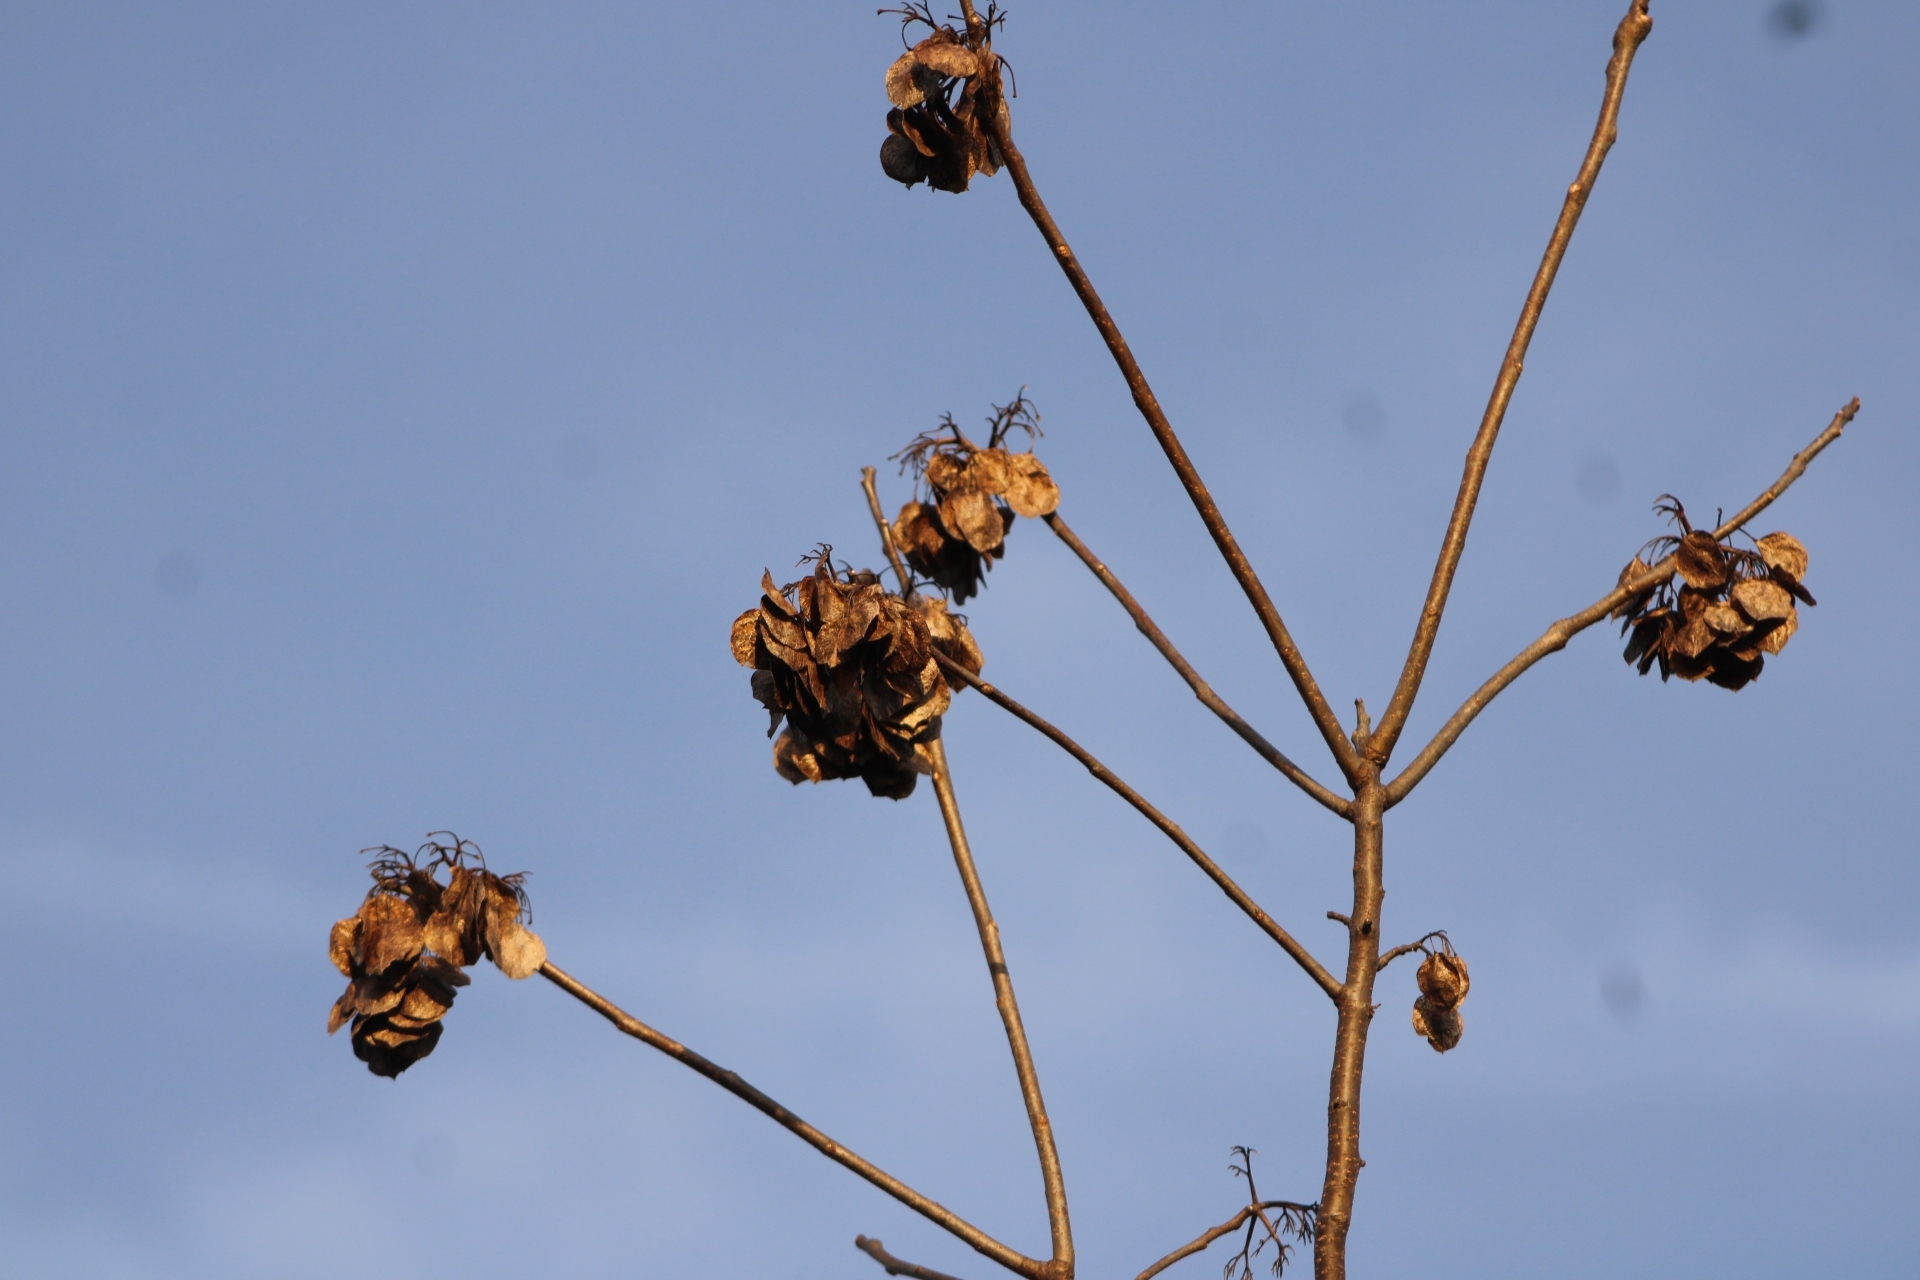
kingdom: Plantae
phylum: Tracheophyta
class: Magnoliopsida
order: Sapindales
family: Rutaceae
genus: Ptelea
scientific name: Ptelea trifoliata
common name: Common hop-tree
